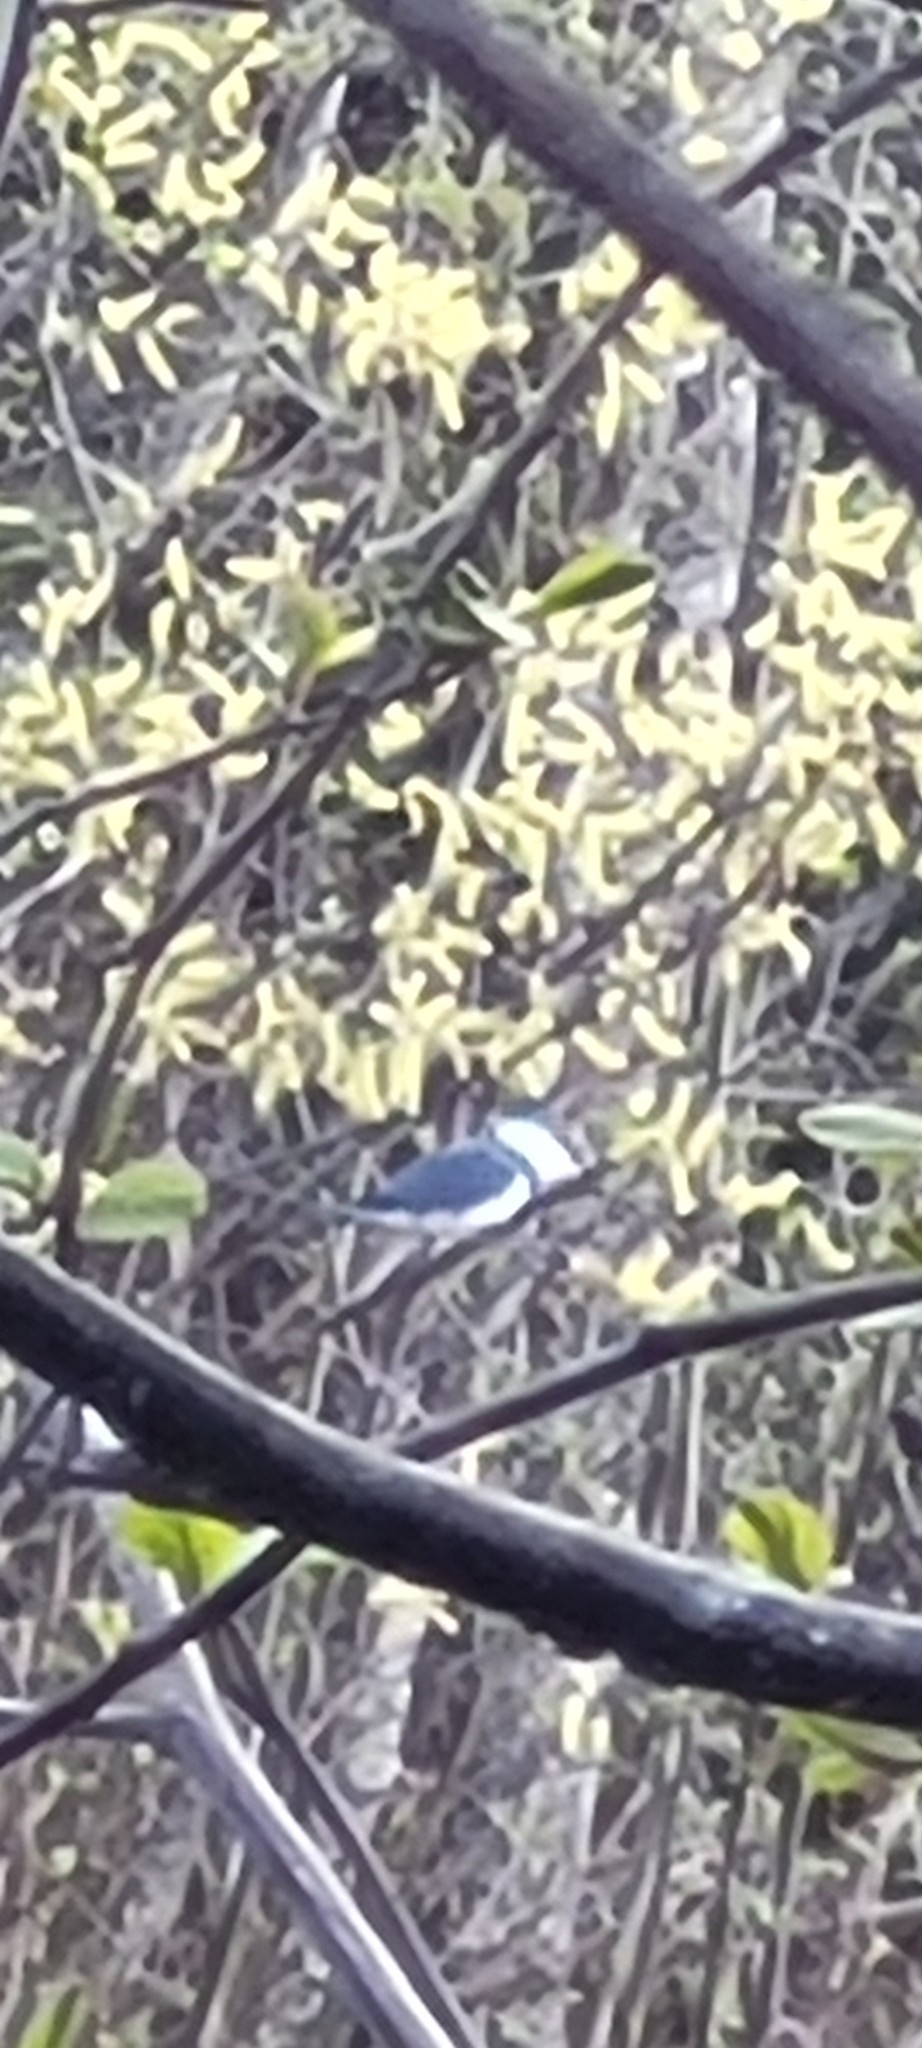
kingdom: Animalia
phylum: Chordata
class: Aves
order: Coraciiformes
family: Alcedinidae
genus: Megaceryle
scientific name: Megaceryle alcyon
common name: Belted kingfisher
